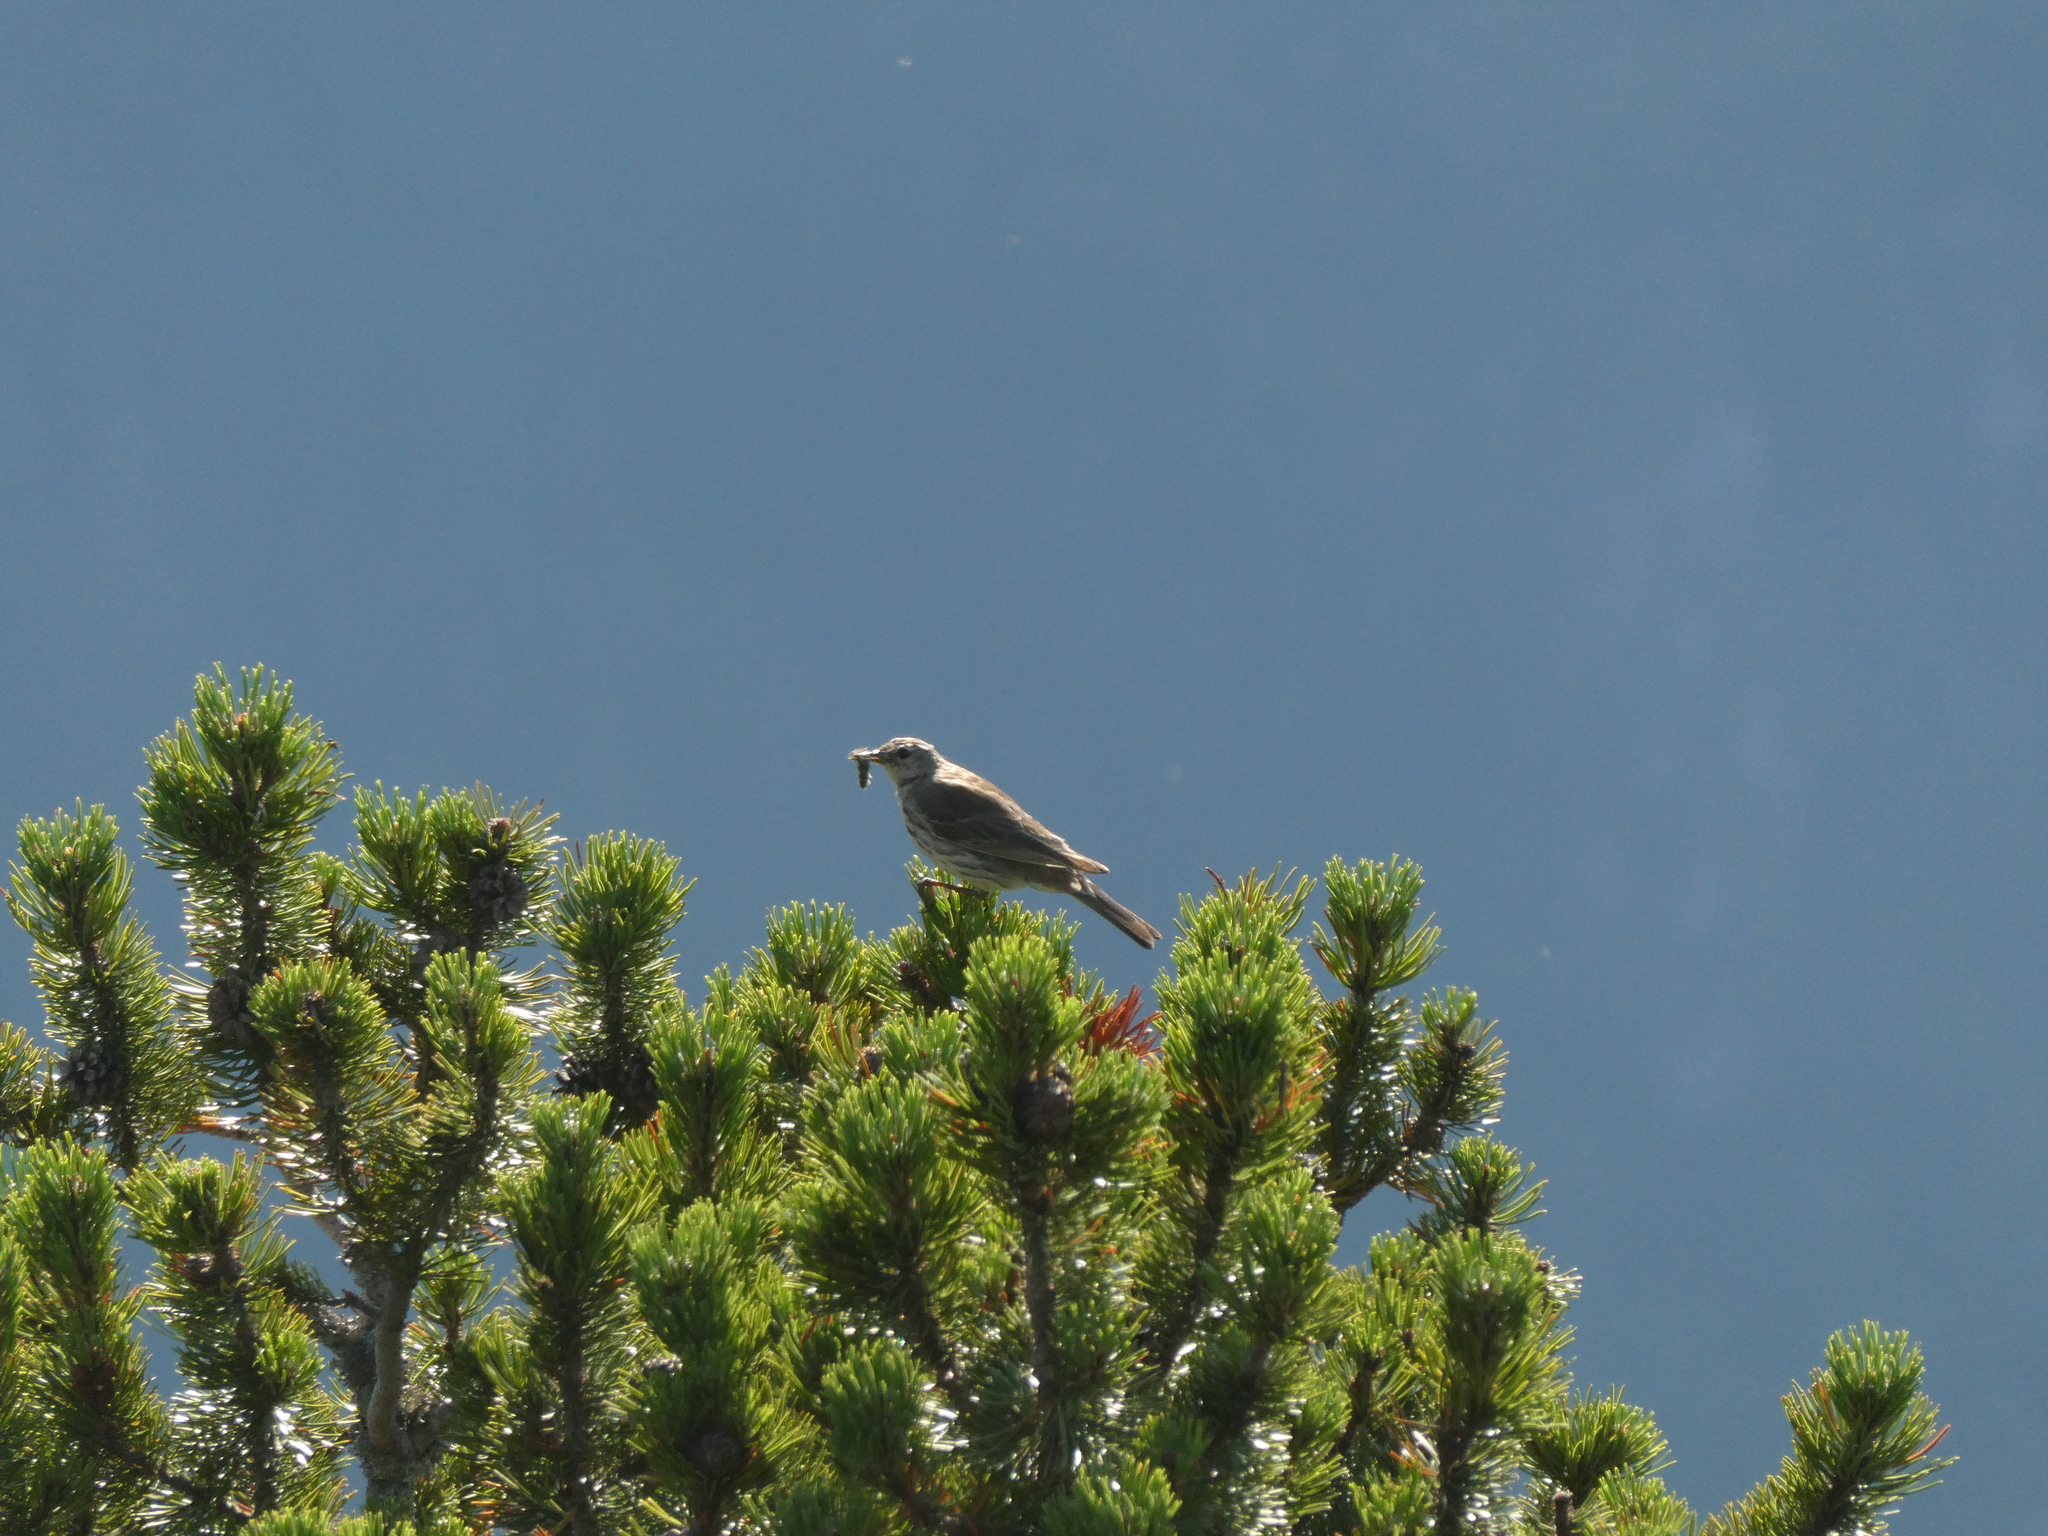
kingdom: Animalia
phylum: Chordata
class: Aves
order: Passeriformes
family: Motacillidae
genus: Anthus
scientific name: Anthus spinoletta
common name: Water pipit
